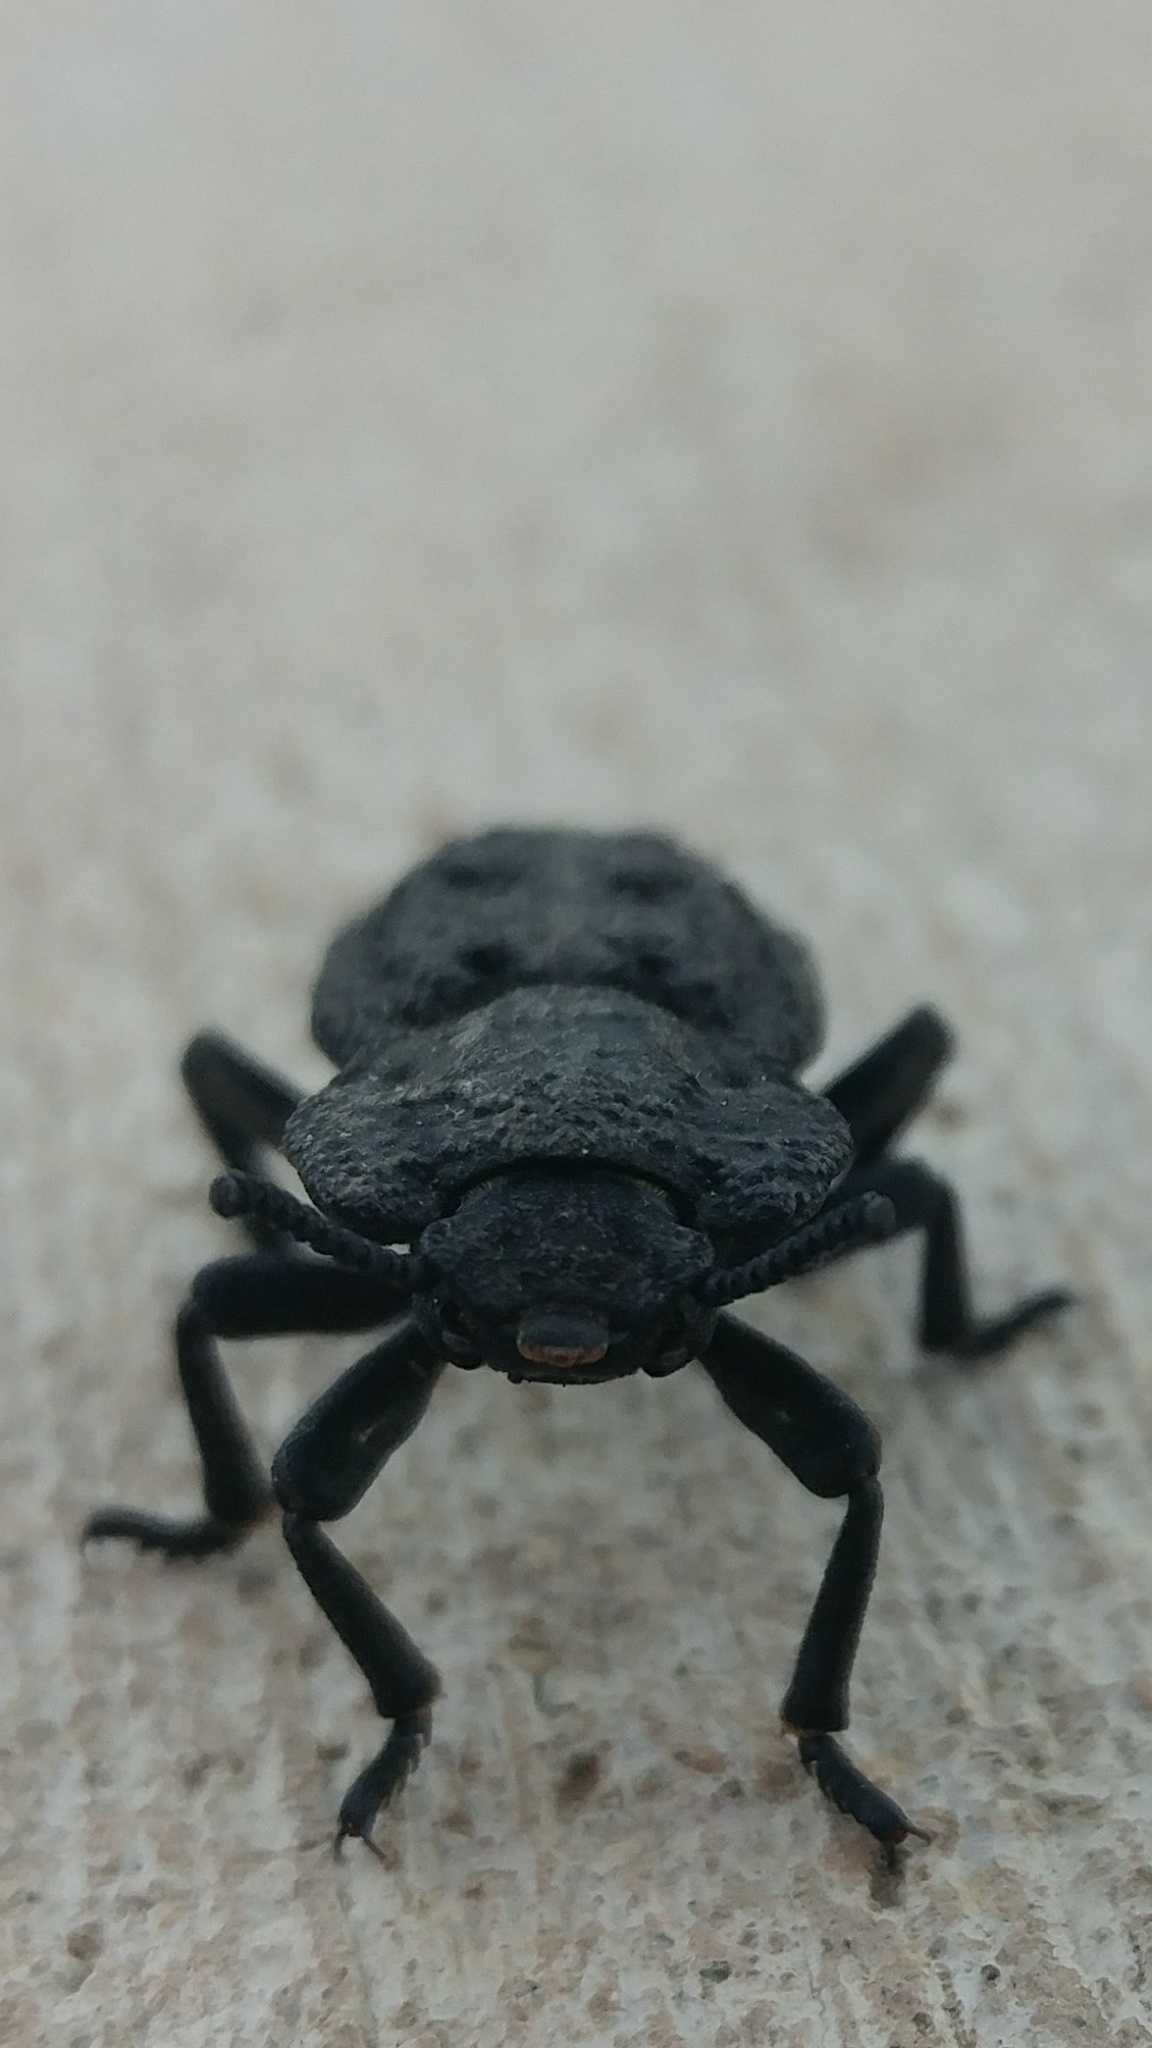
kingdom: Animalia
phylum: Arthropoda
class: Insecta
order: Coleoptera
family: Zopheridae
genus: Phloeodes
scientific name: Phloeodes diabolicus
